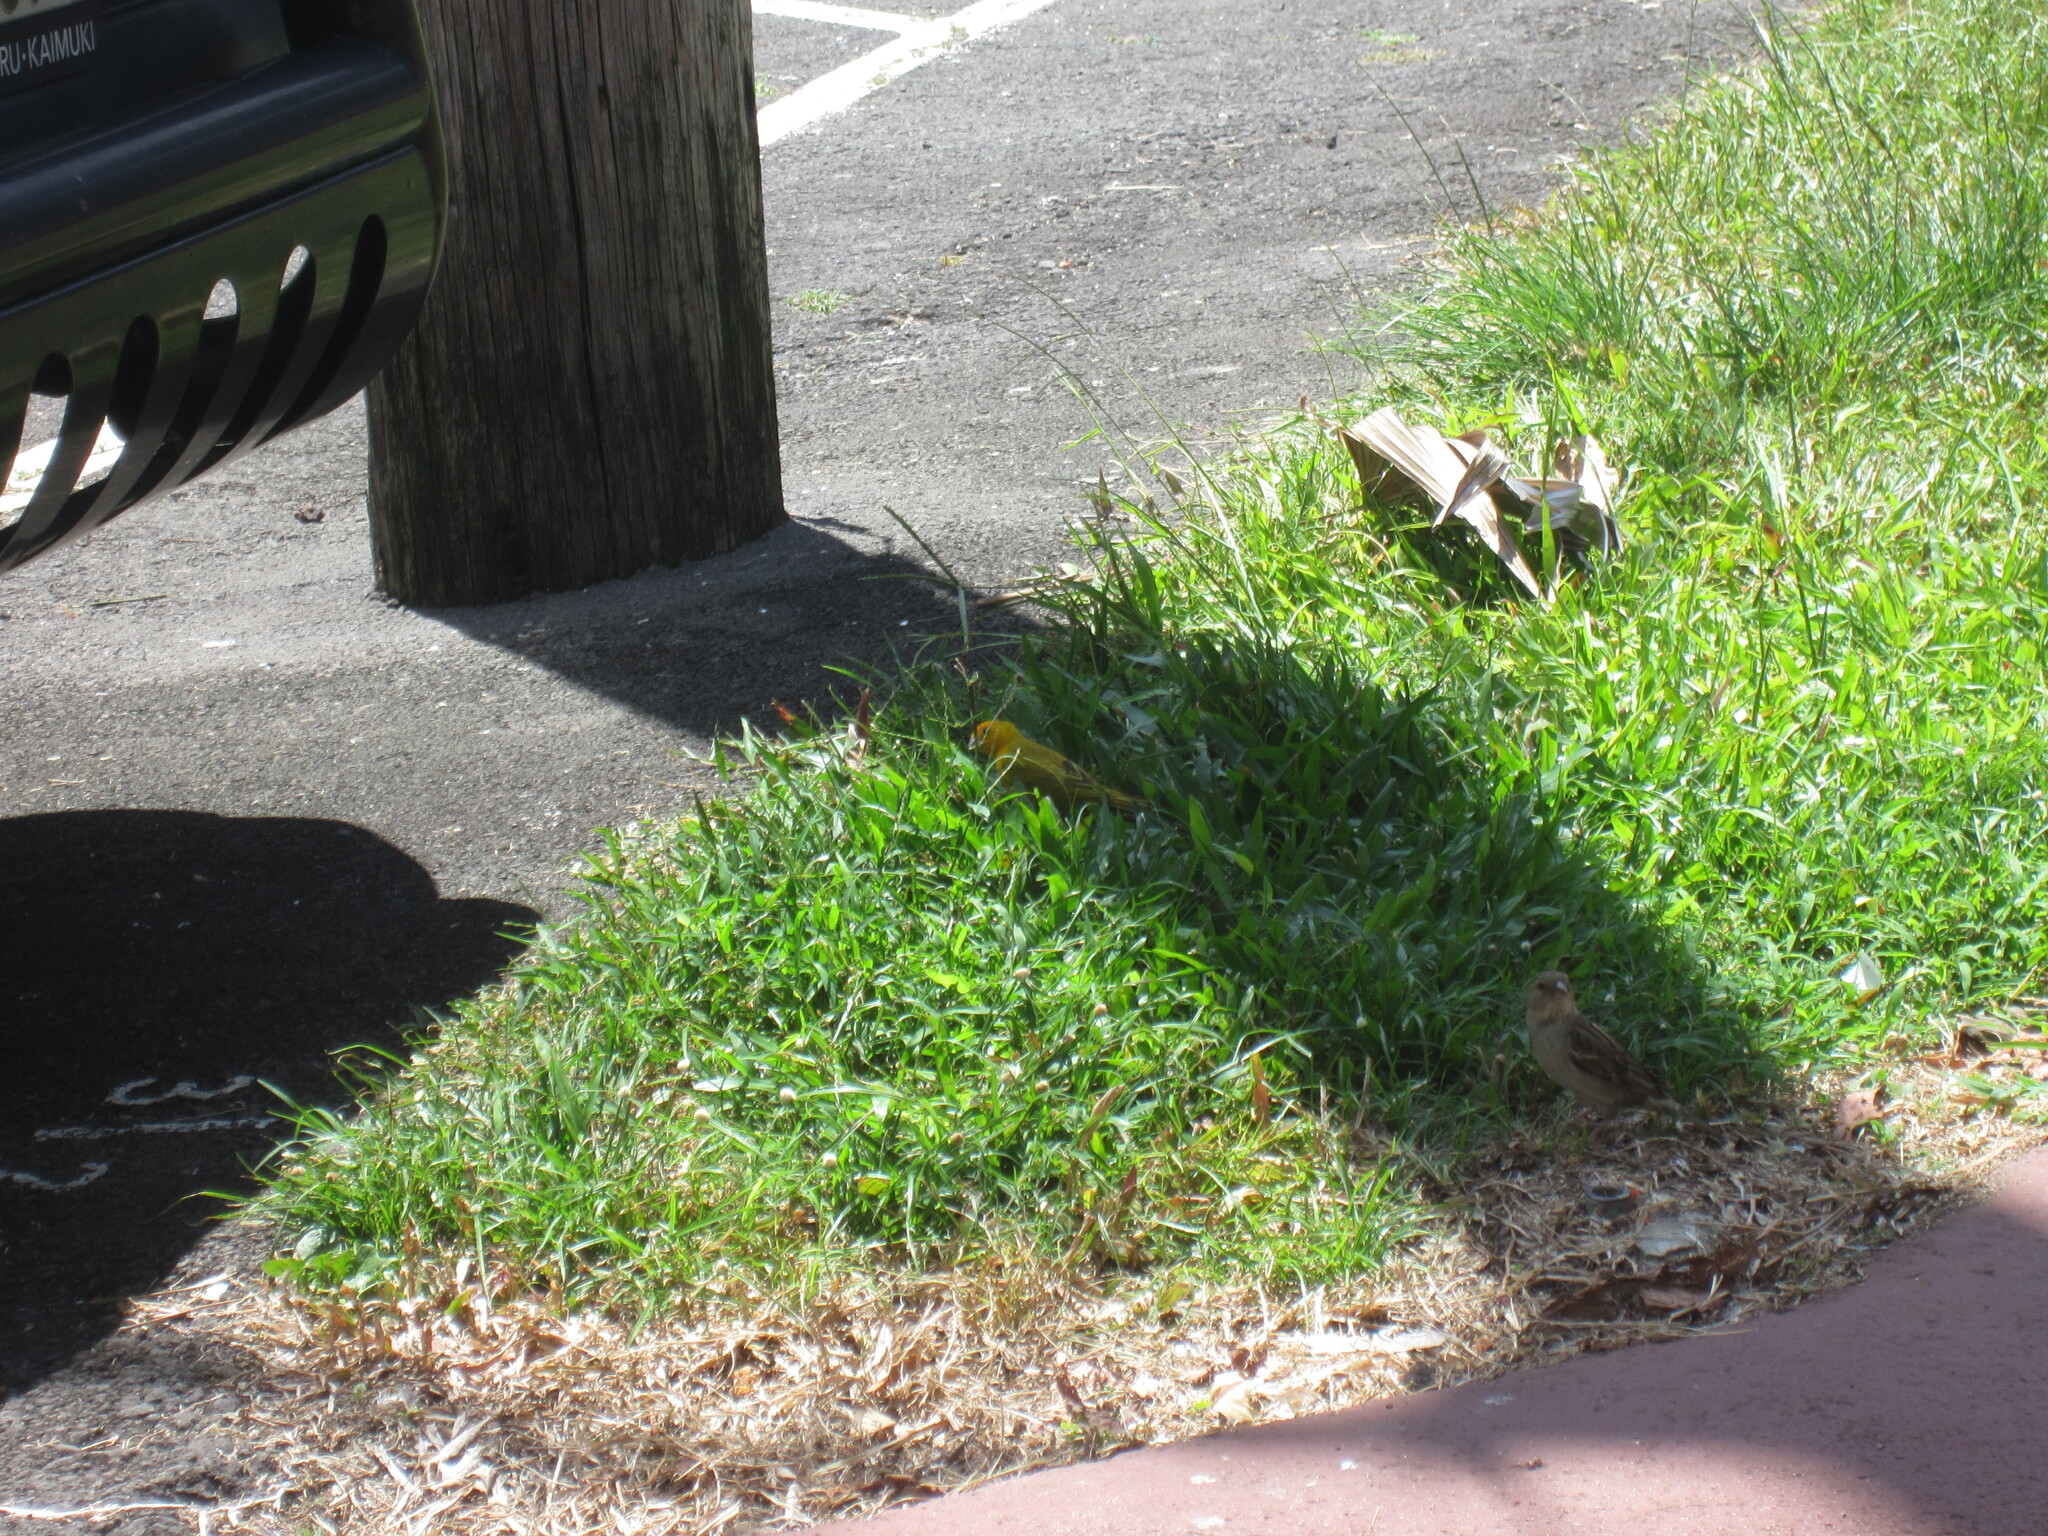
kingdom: Animalia
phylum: Chordata
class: Aves
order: Passeriformes
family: Thraupidae
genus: Sicalis
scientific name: Sicalis flaveola
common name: Saffron finch
